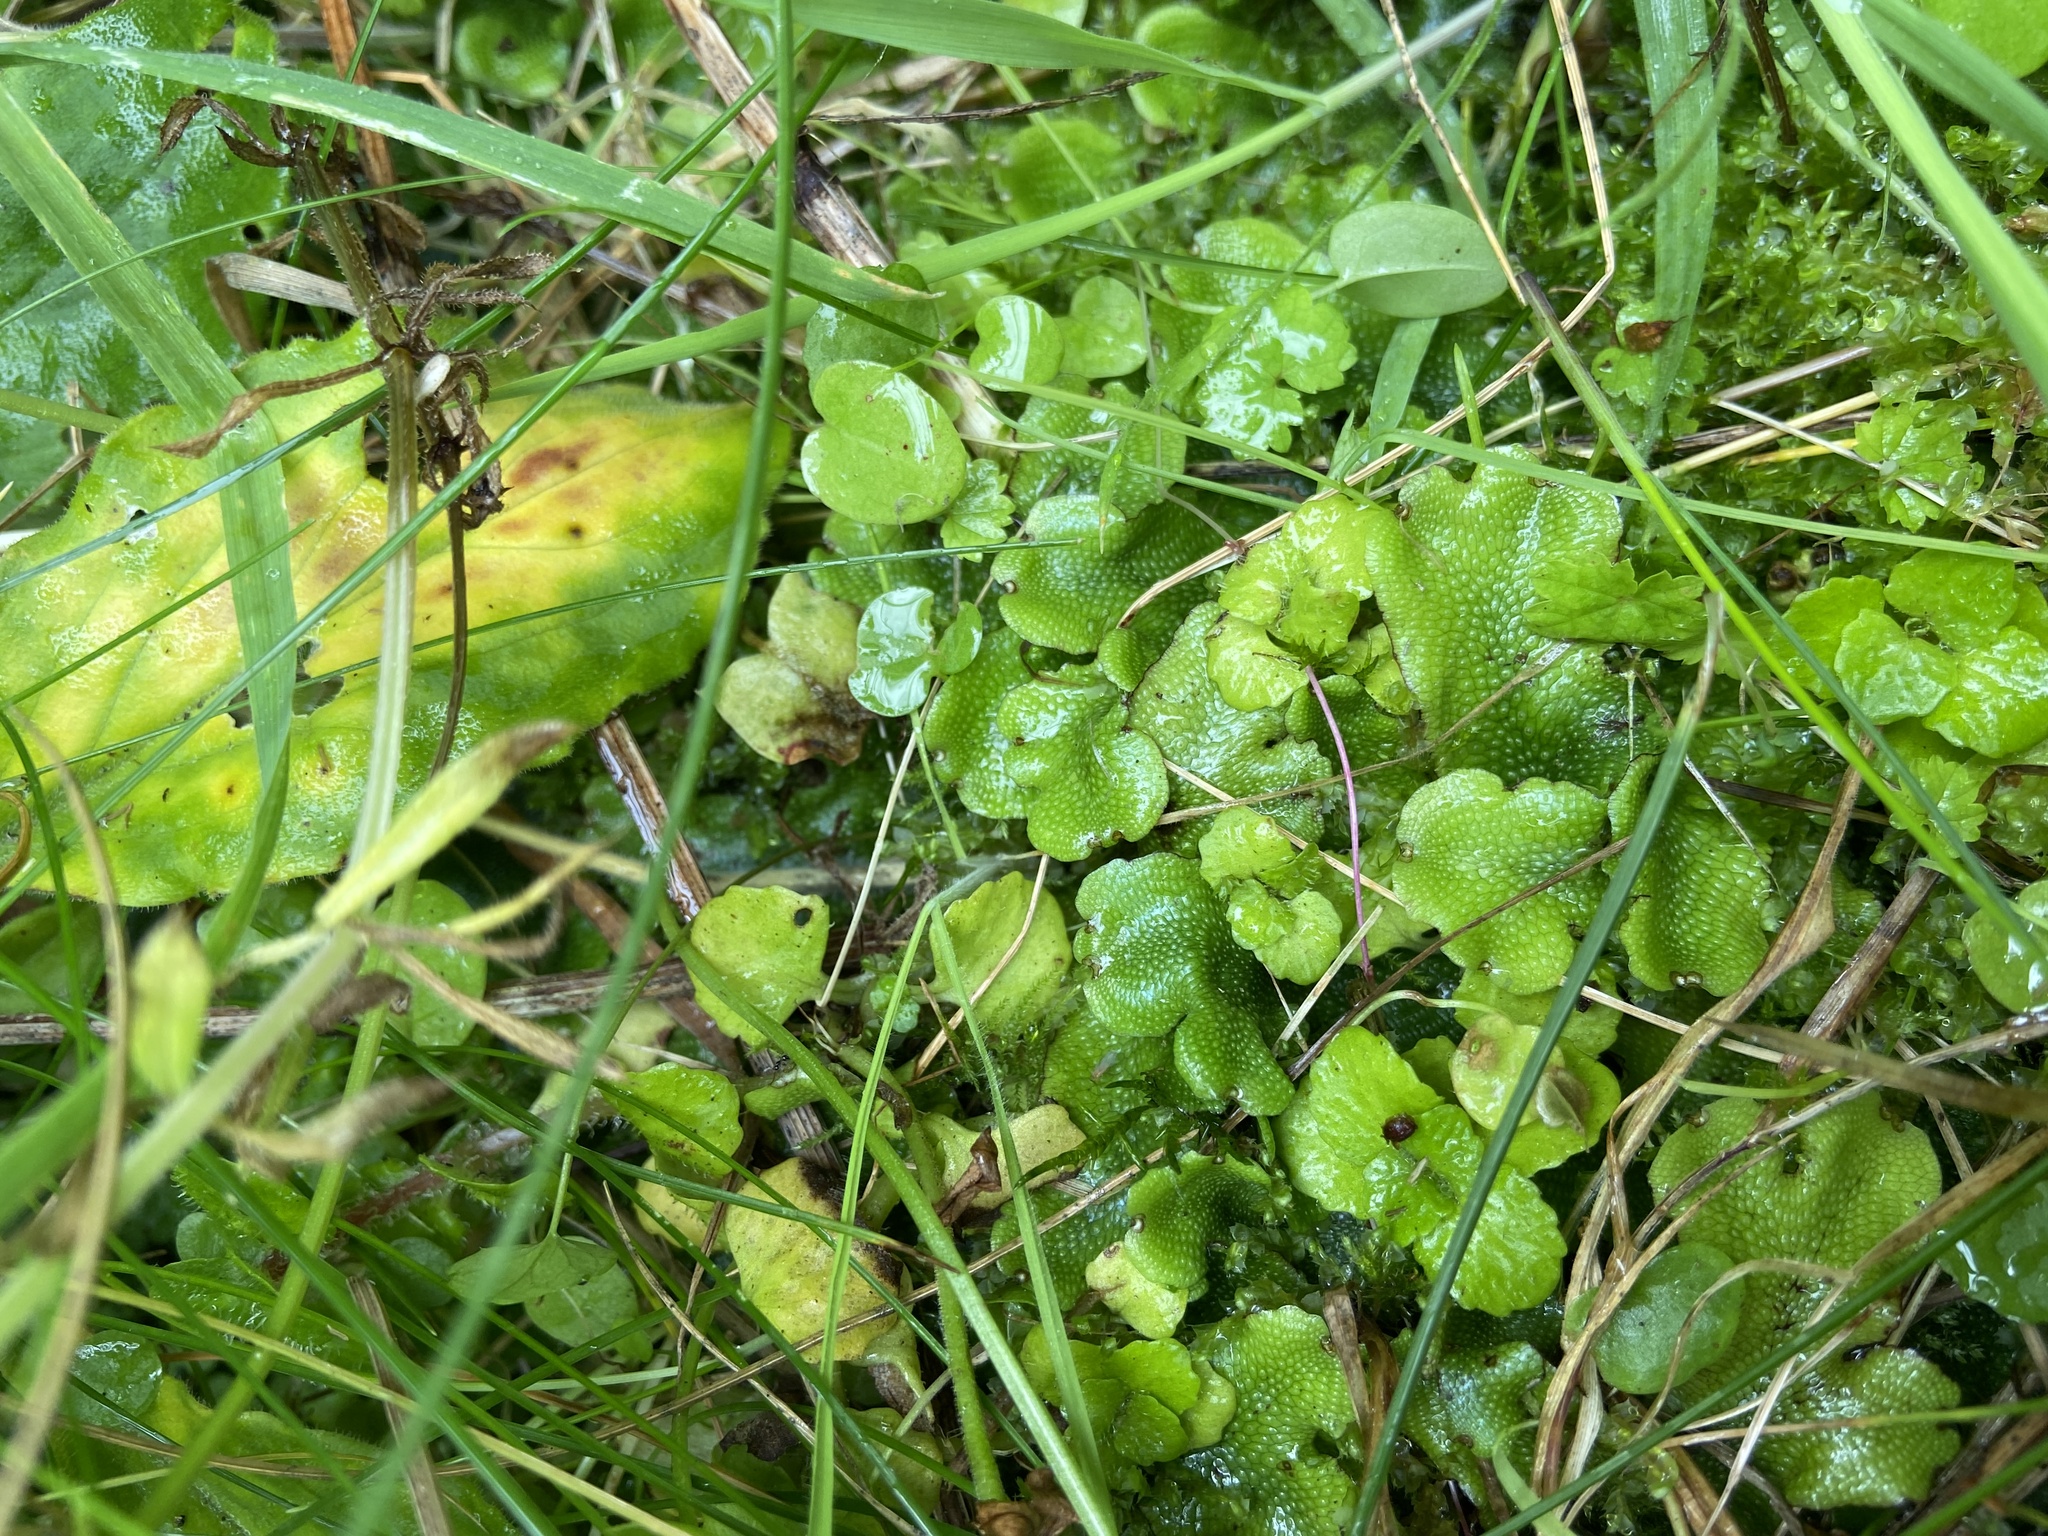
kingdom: Plantae
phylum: Marchantiophyta
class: Marchantiopsida
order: Marchantiales
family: Conocephalaceae
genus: Conocephalum
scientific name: Conocephalum conicum
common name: Great scented liverwort
